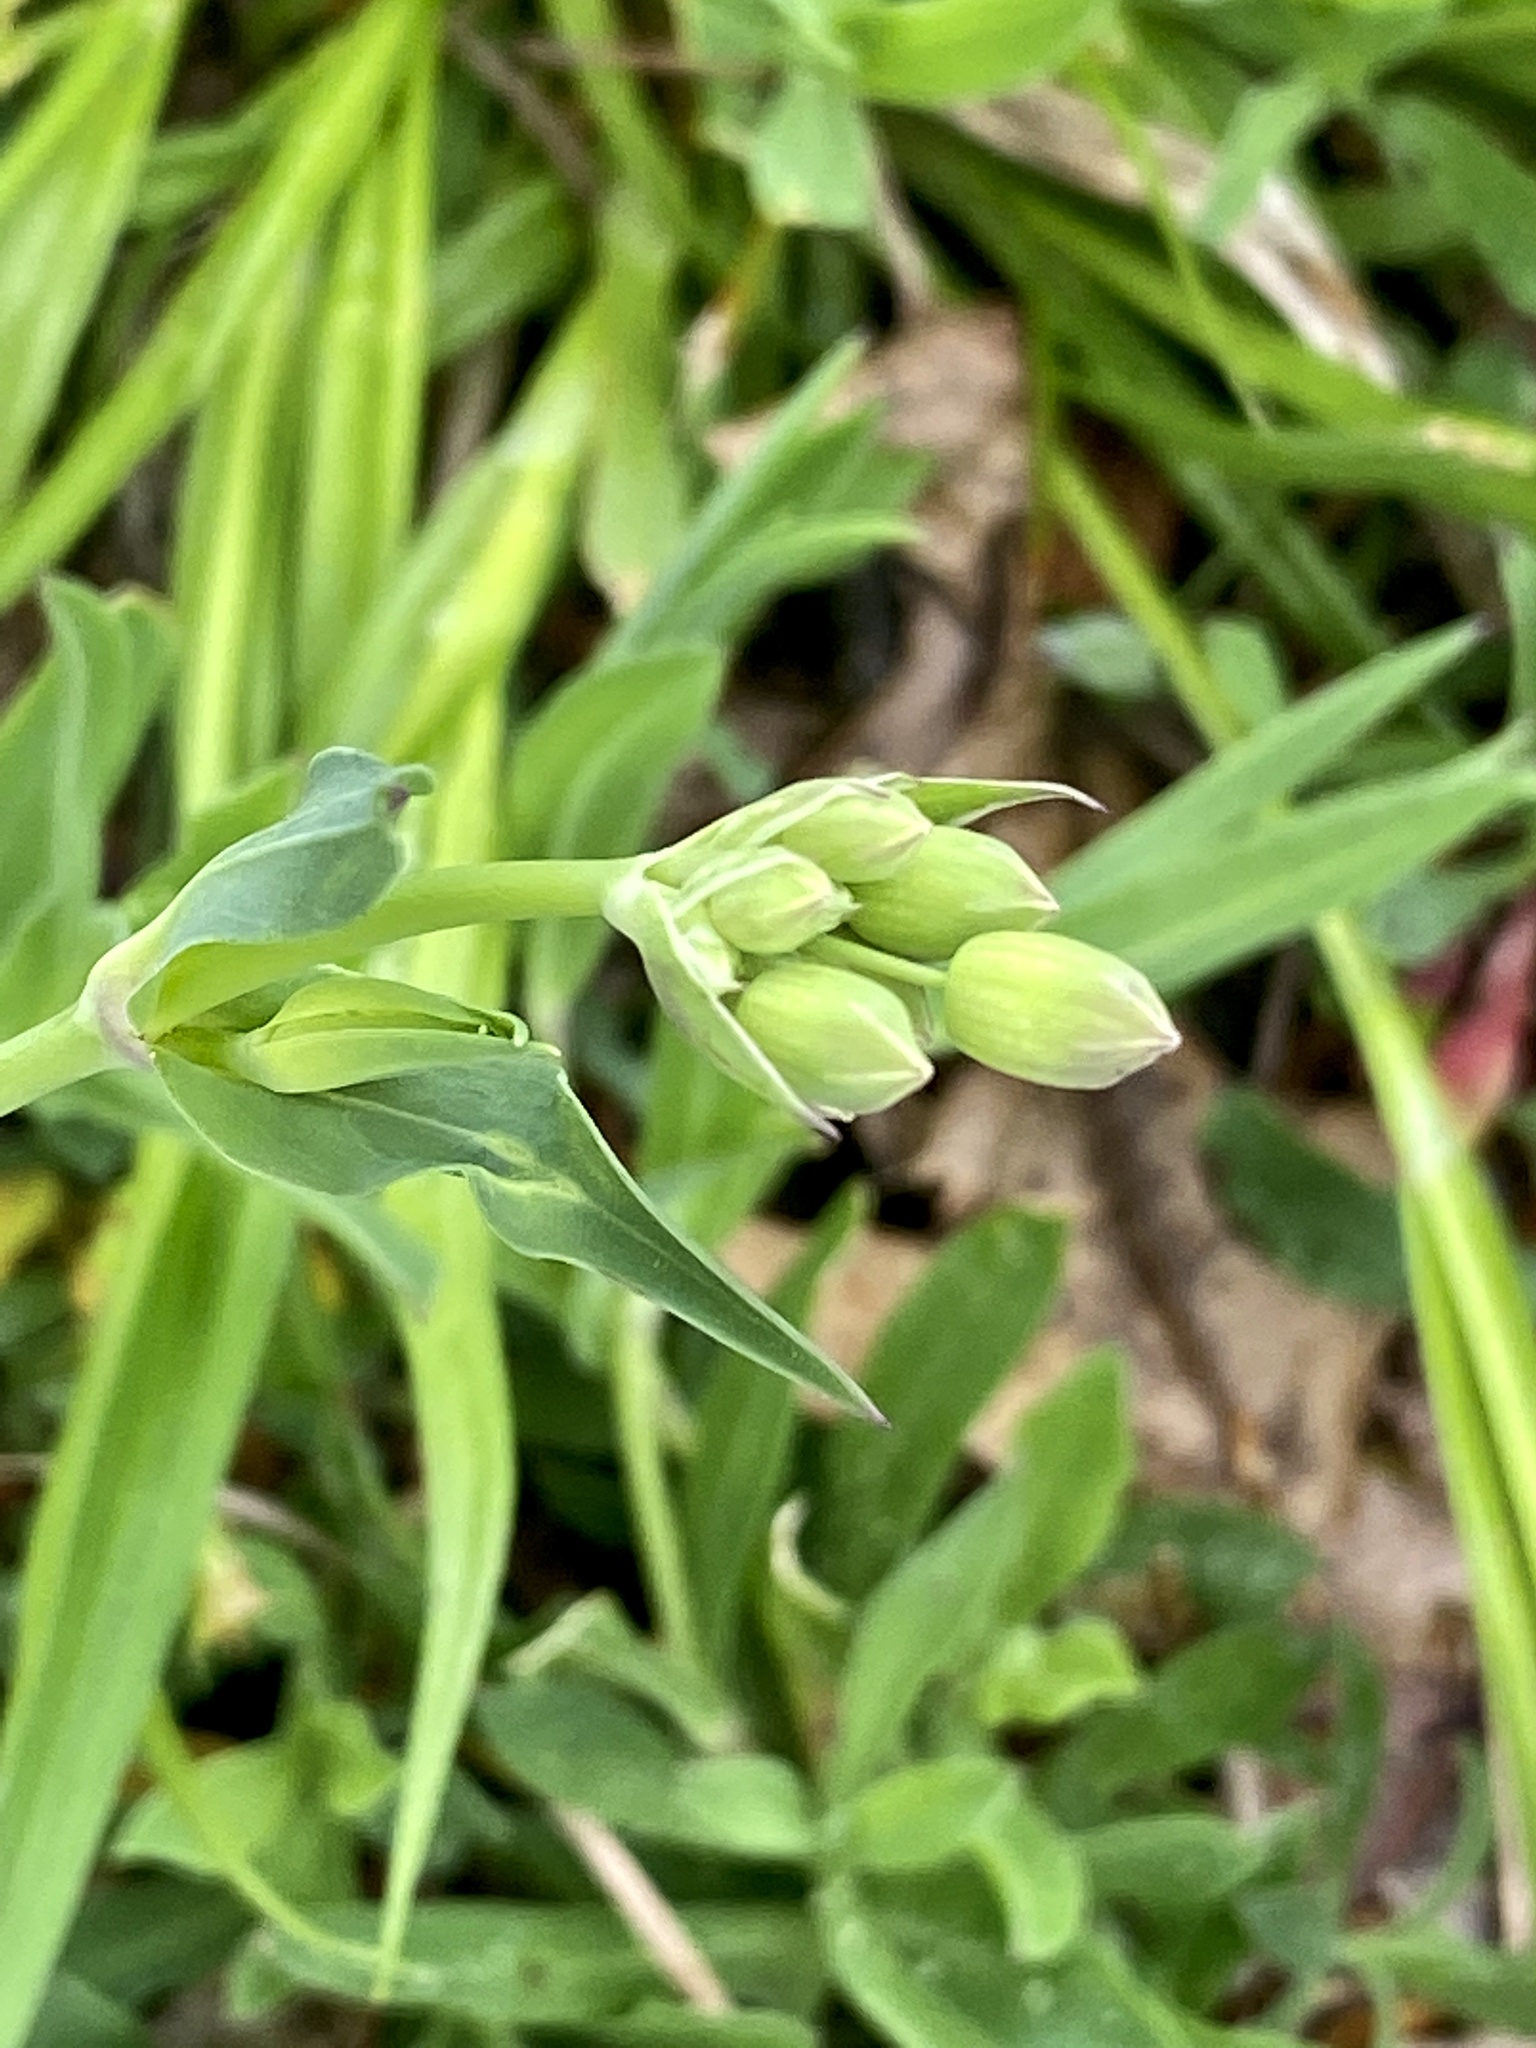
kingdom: Plantae
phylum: Tracheophyta
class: Magnoliopsida
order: Caryophyllales
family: Caryophyllaceae
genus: Silene
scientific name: Silene vulgaris
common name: Bladder campion
